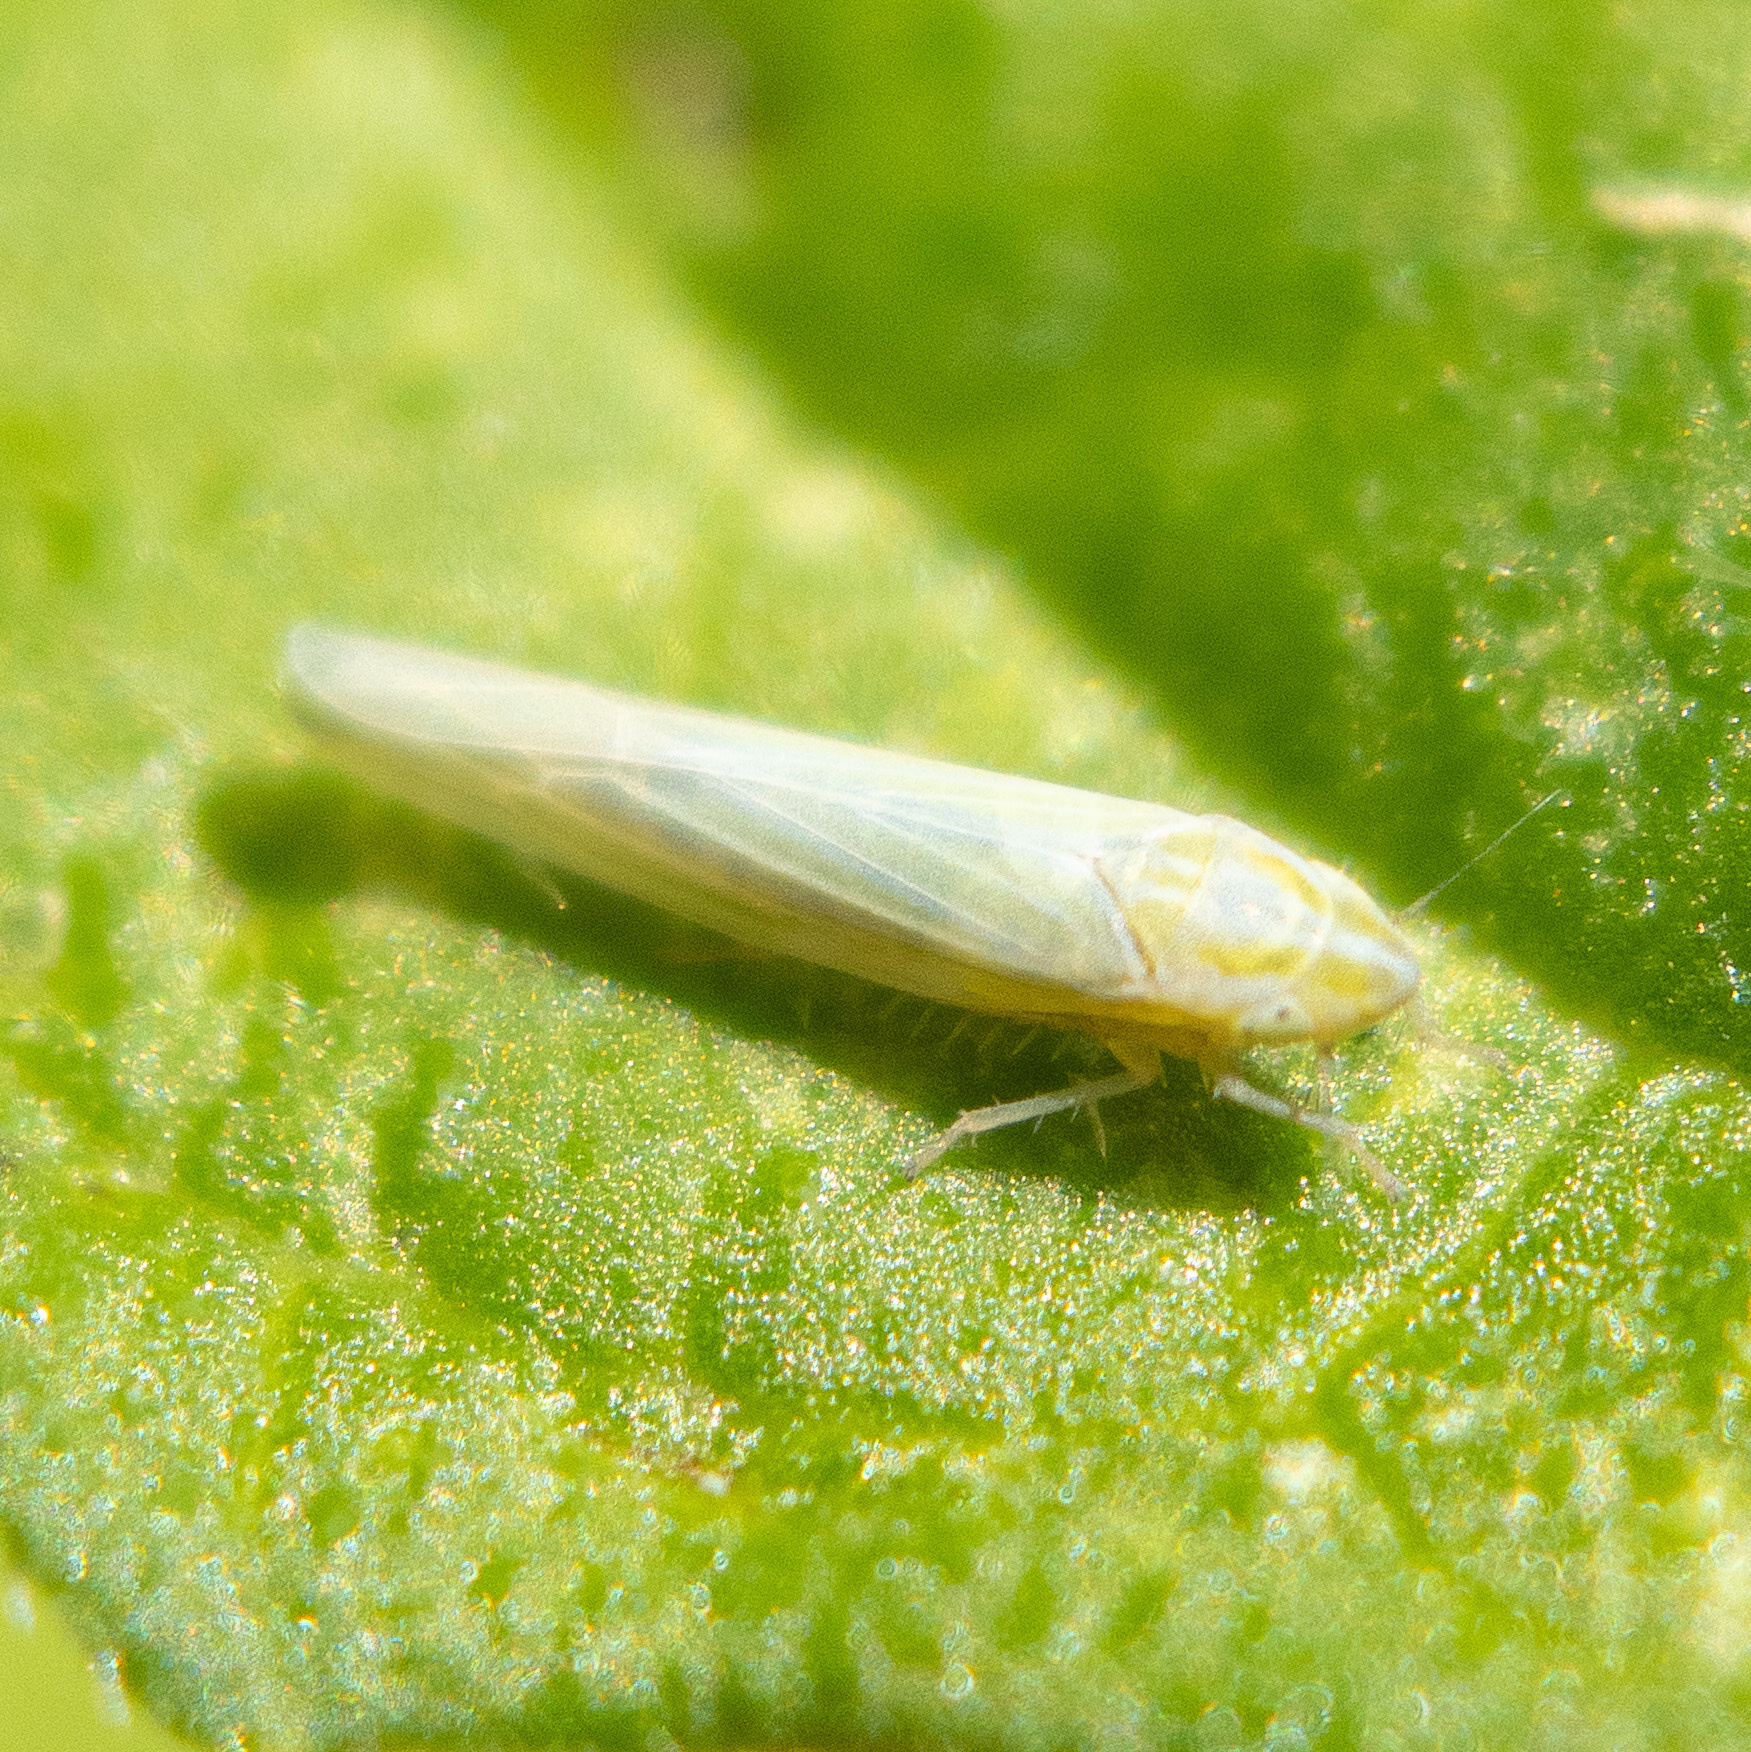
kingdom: Animalia
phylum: Arthropoda
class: Insecta
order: Hemiptera
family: Cicadellidae
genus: Dikraneura
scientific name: Dikraneura angustata
